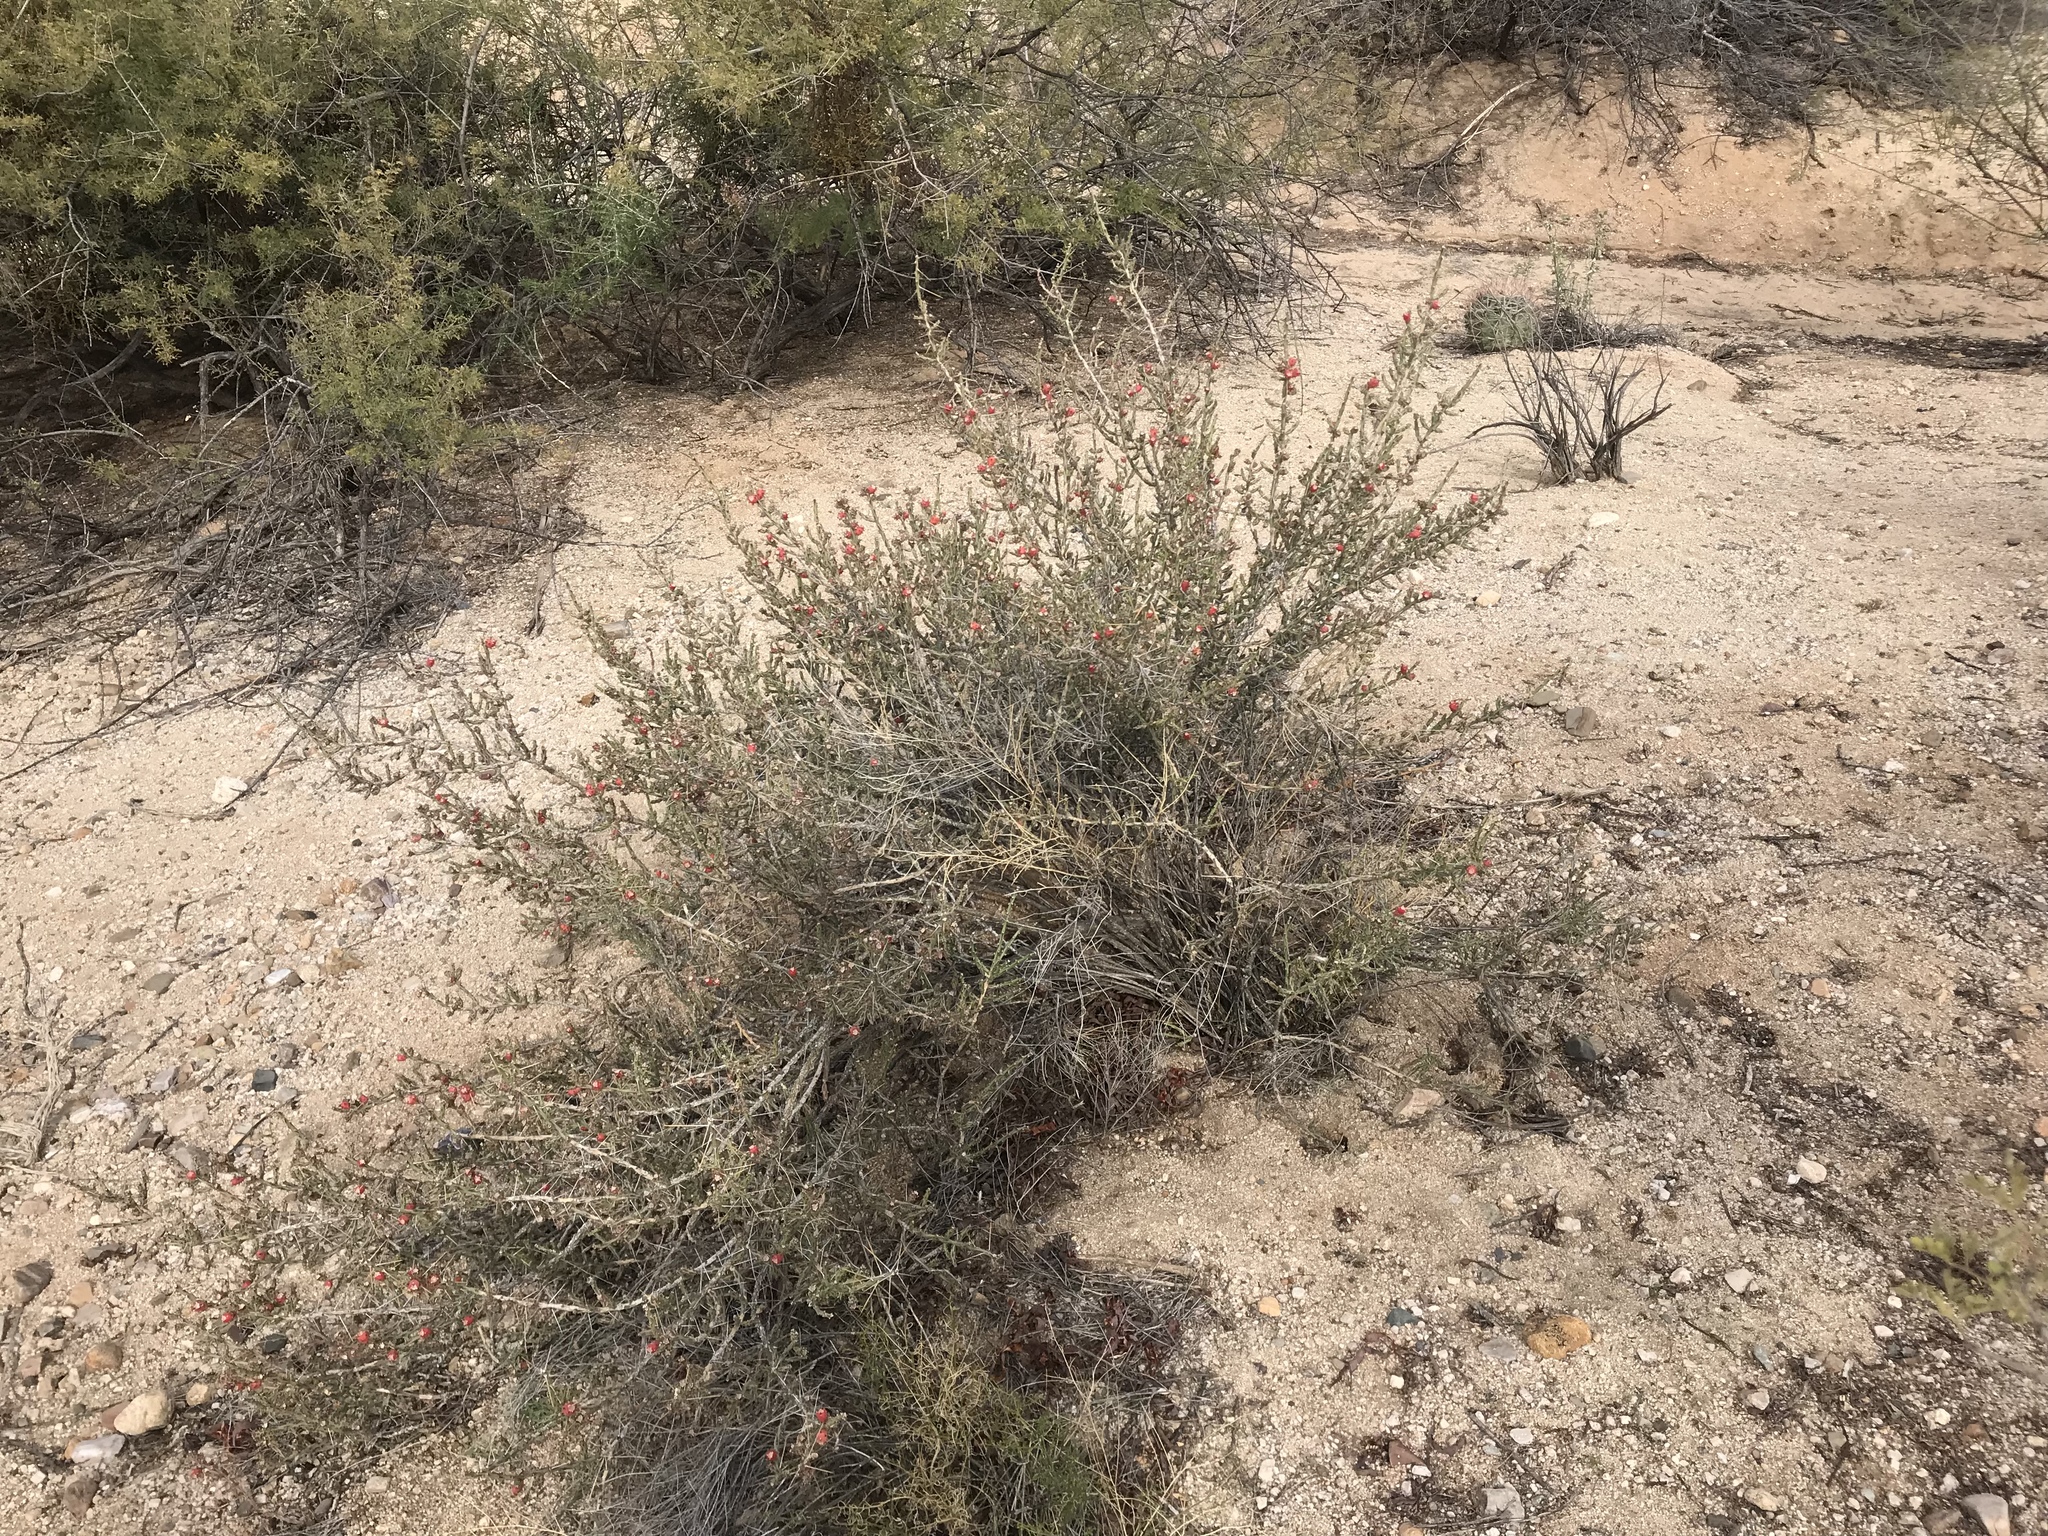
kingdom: Plantae
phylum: Tracheophyta
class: Magnoliopsida
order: Caryophyllales
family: Cactaceae
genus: Cylindropuntia
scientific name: Cylindropuntia leptocaulis
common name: Christmas cactus
